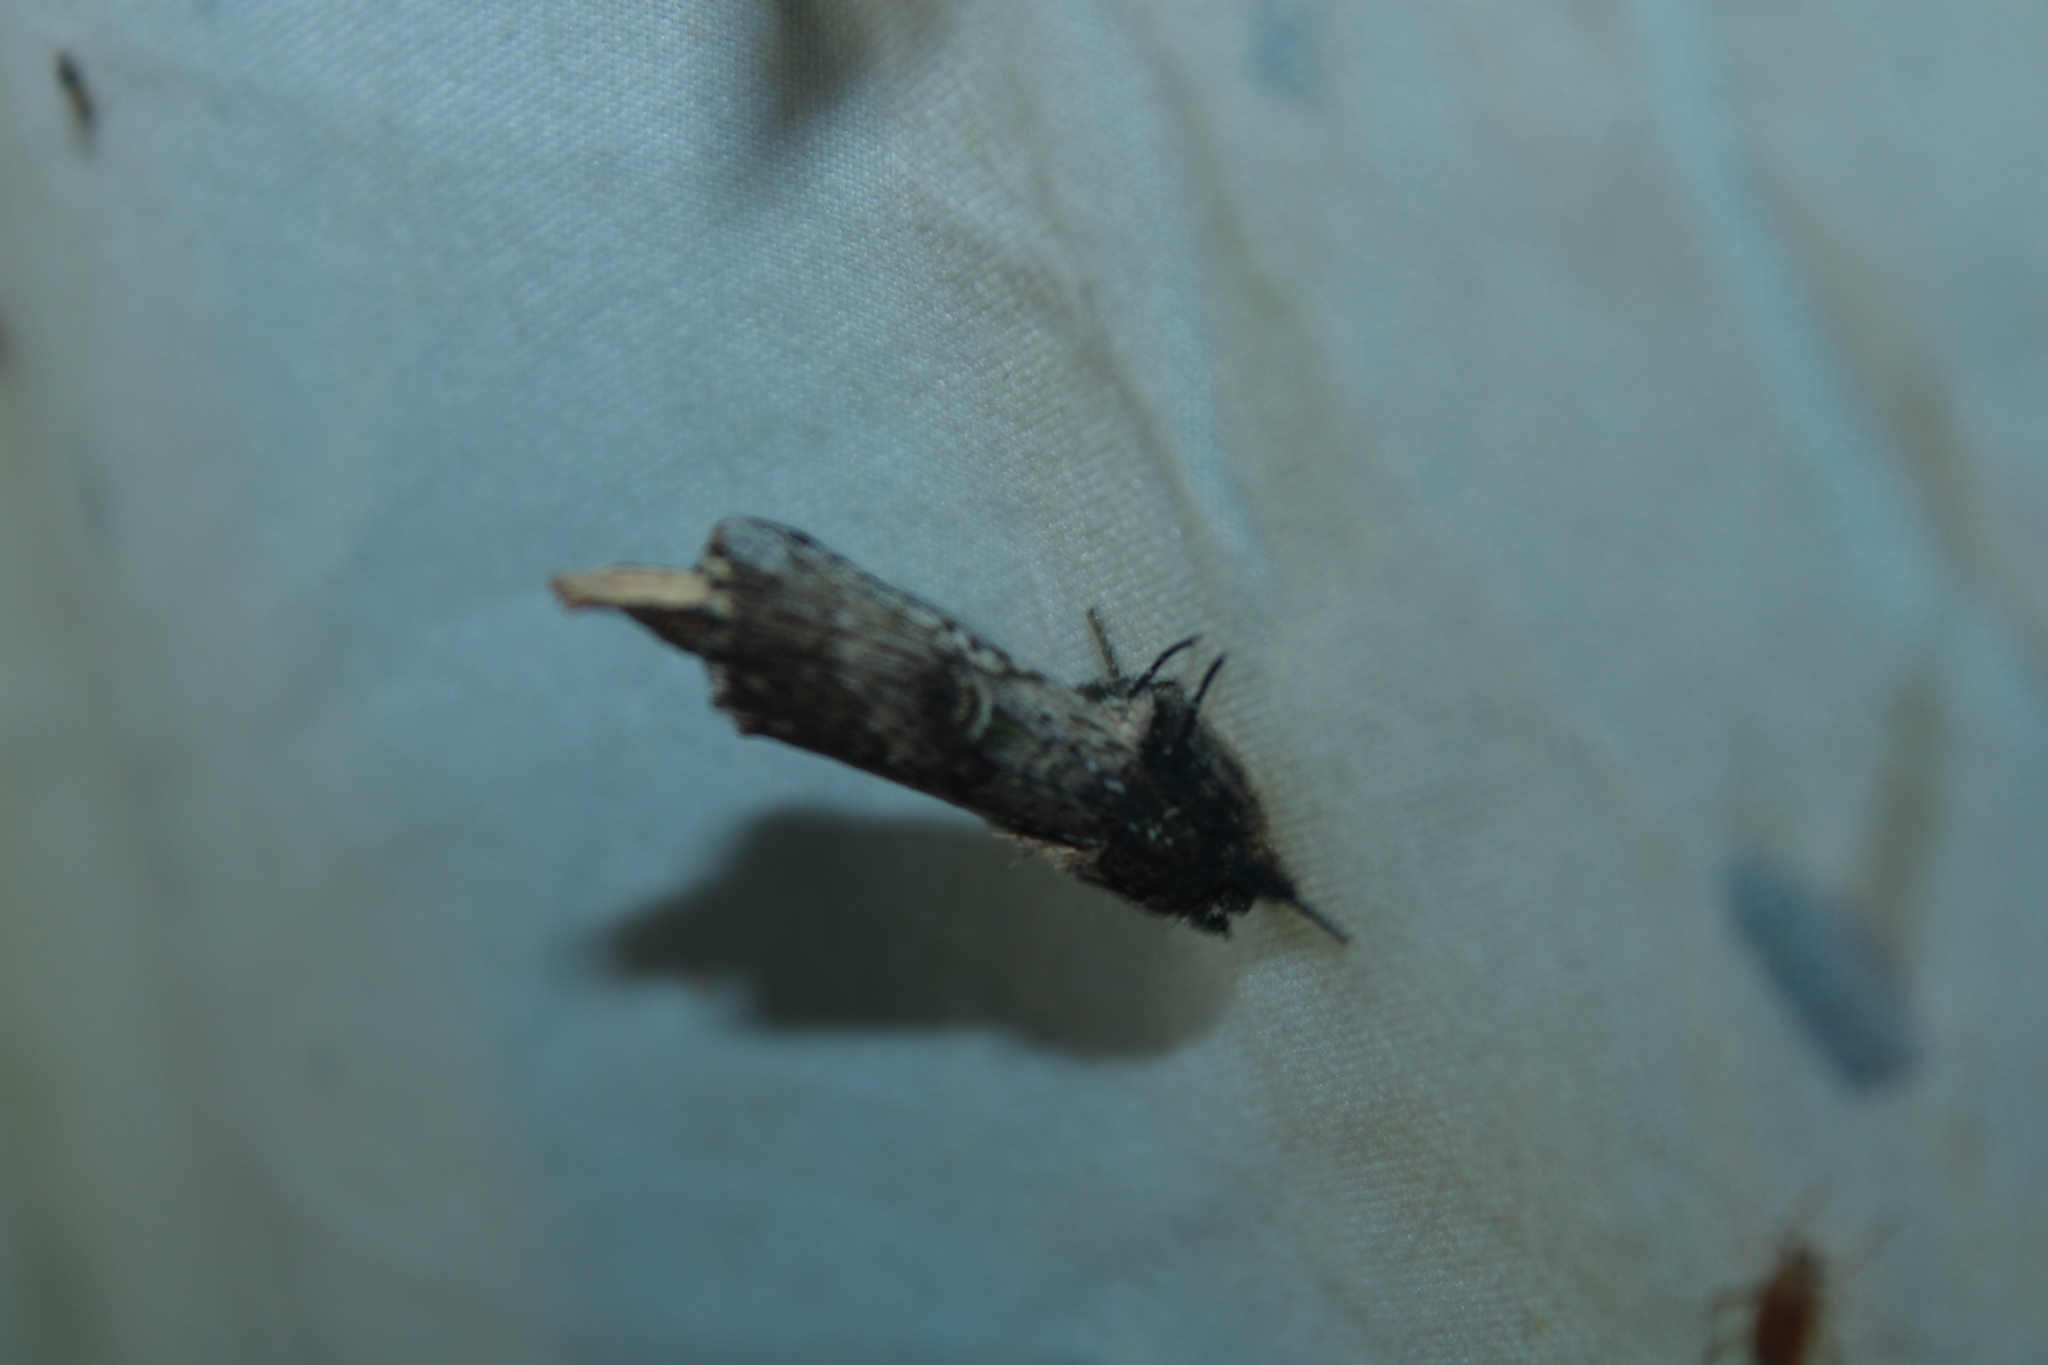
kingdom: Animalia
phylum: Arthropoda
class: Insecta
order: Lepidoptera
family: Notodontidae
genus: Schizura
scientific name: Schizura ipomaeae
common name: Morning-glory prominent
